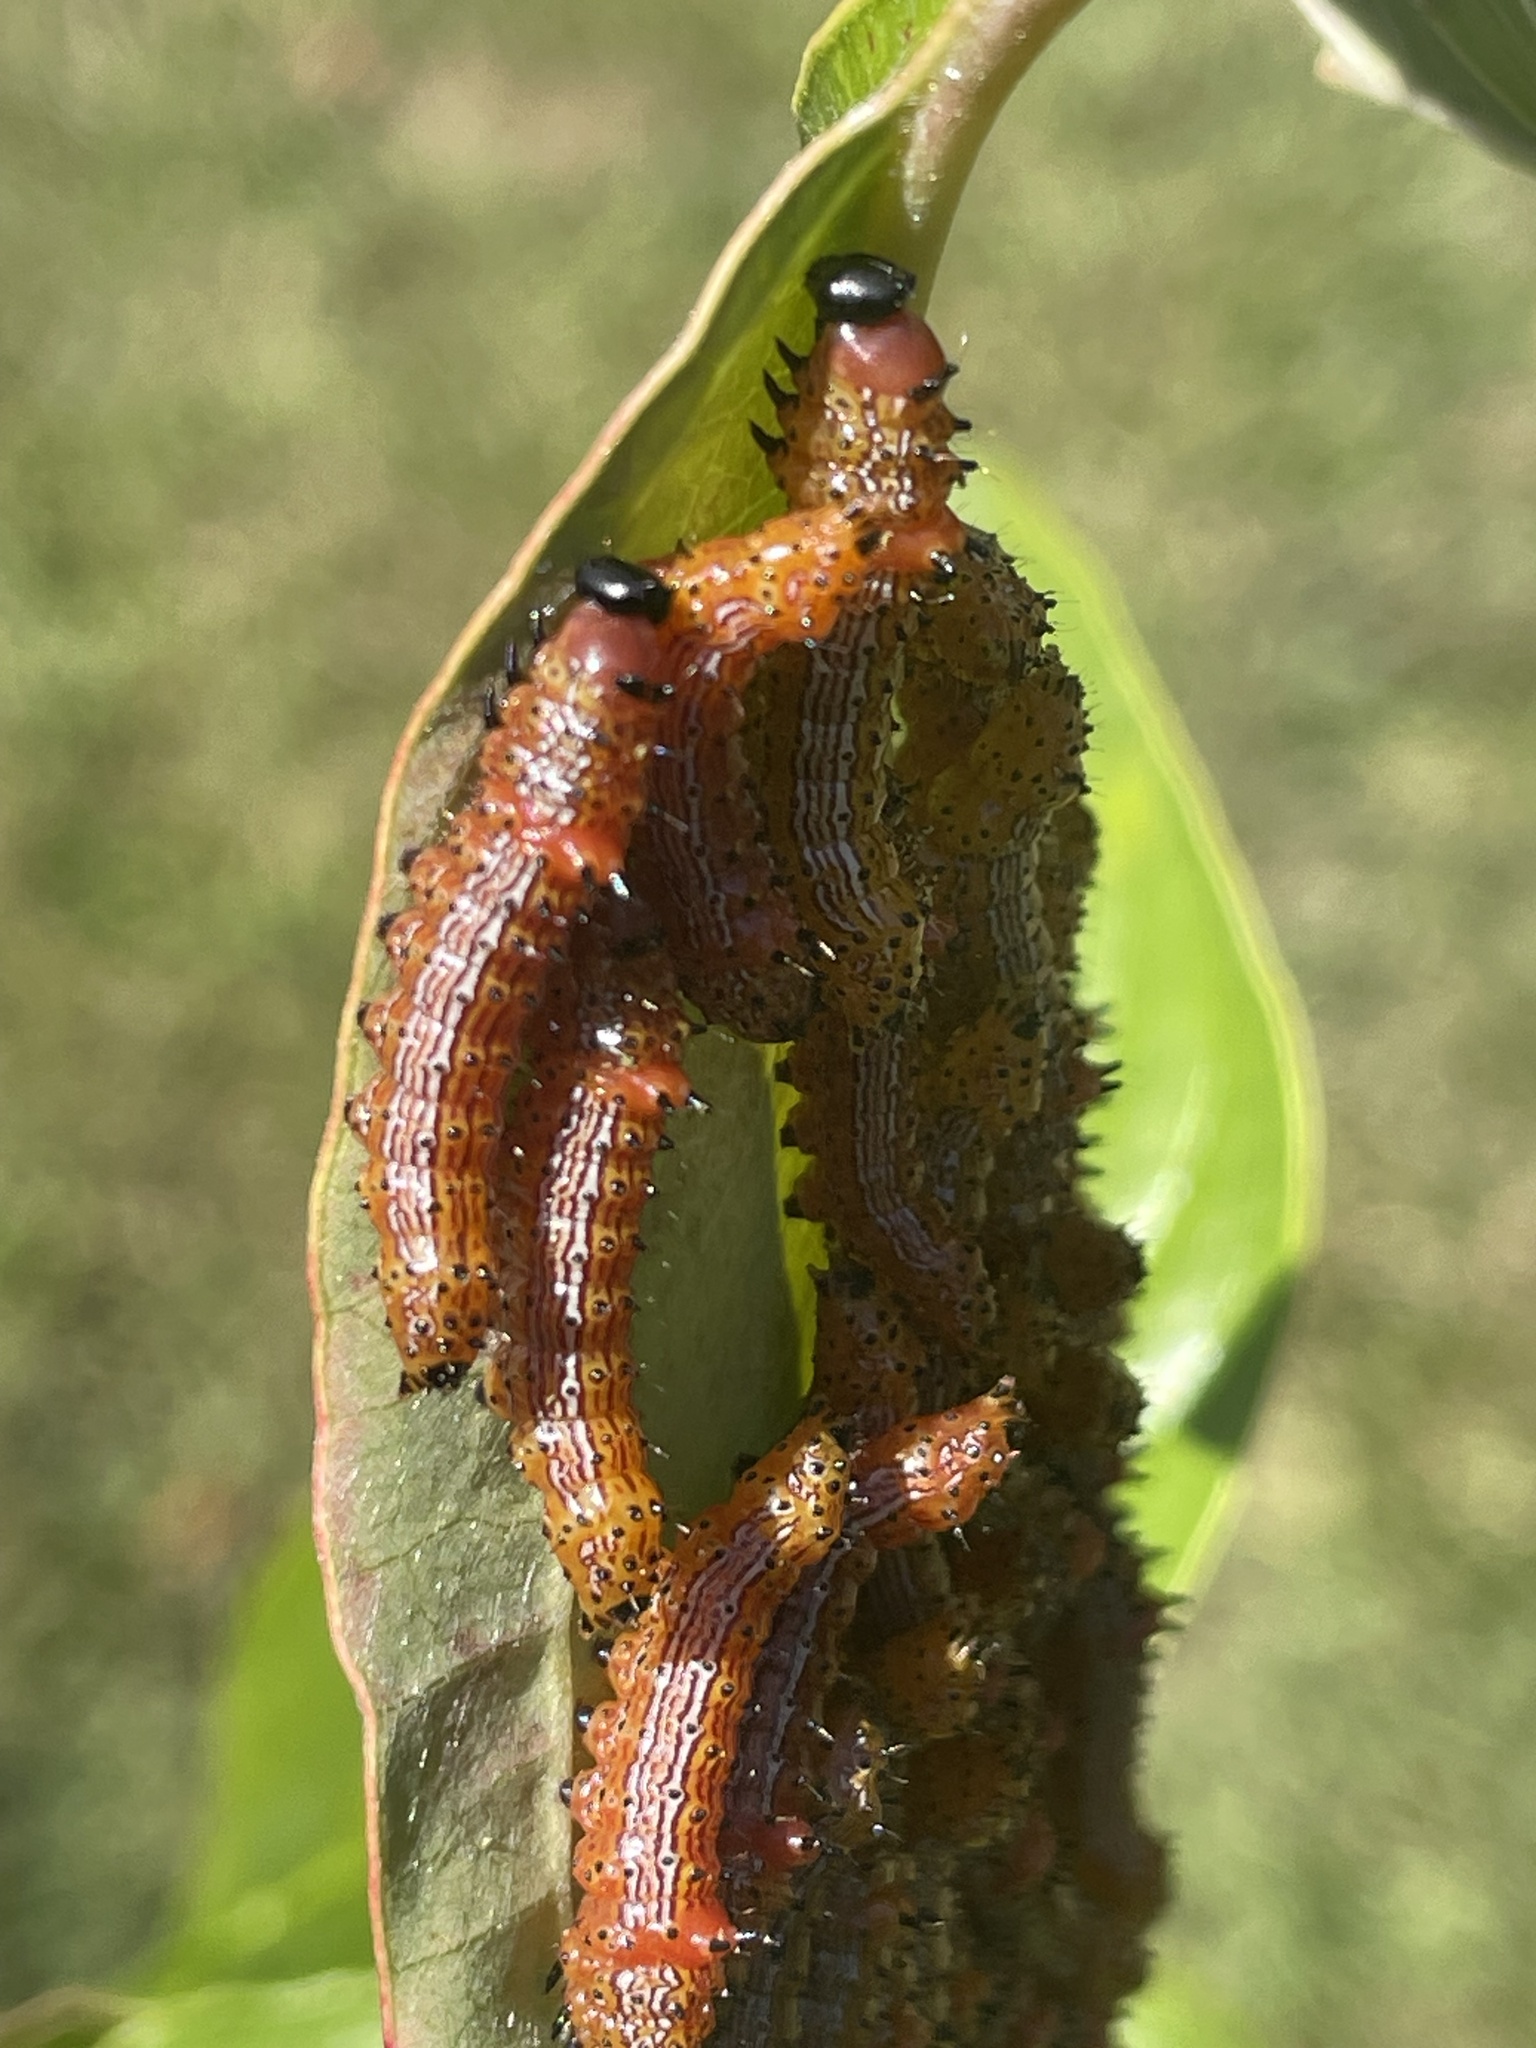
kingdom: Animalia
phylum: Arthropoda
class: Insecta
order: Lepidoptera
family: Notodontidae
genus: Schizura
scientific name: Schizura
